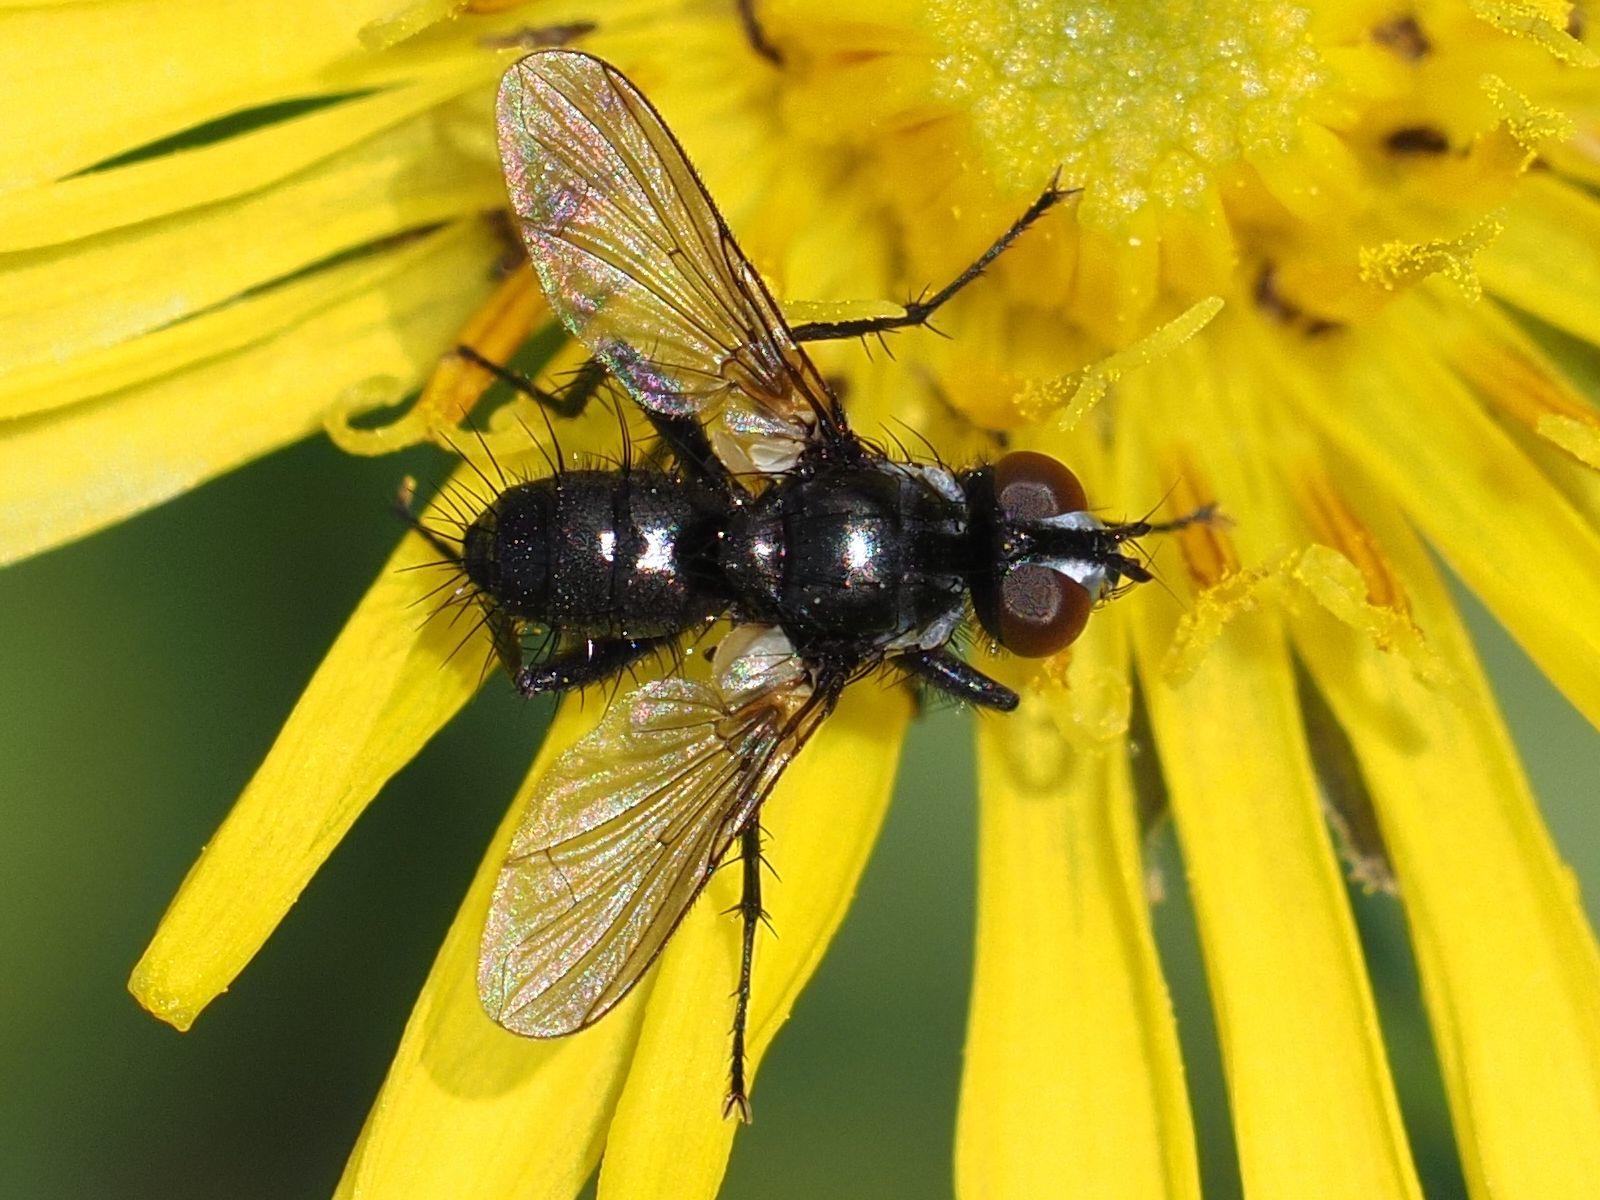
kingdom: Animalia
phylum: Arthropoda
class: Insecta
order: Diptera
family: Tachinidae
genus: Phania
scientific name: Phania funesta
